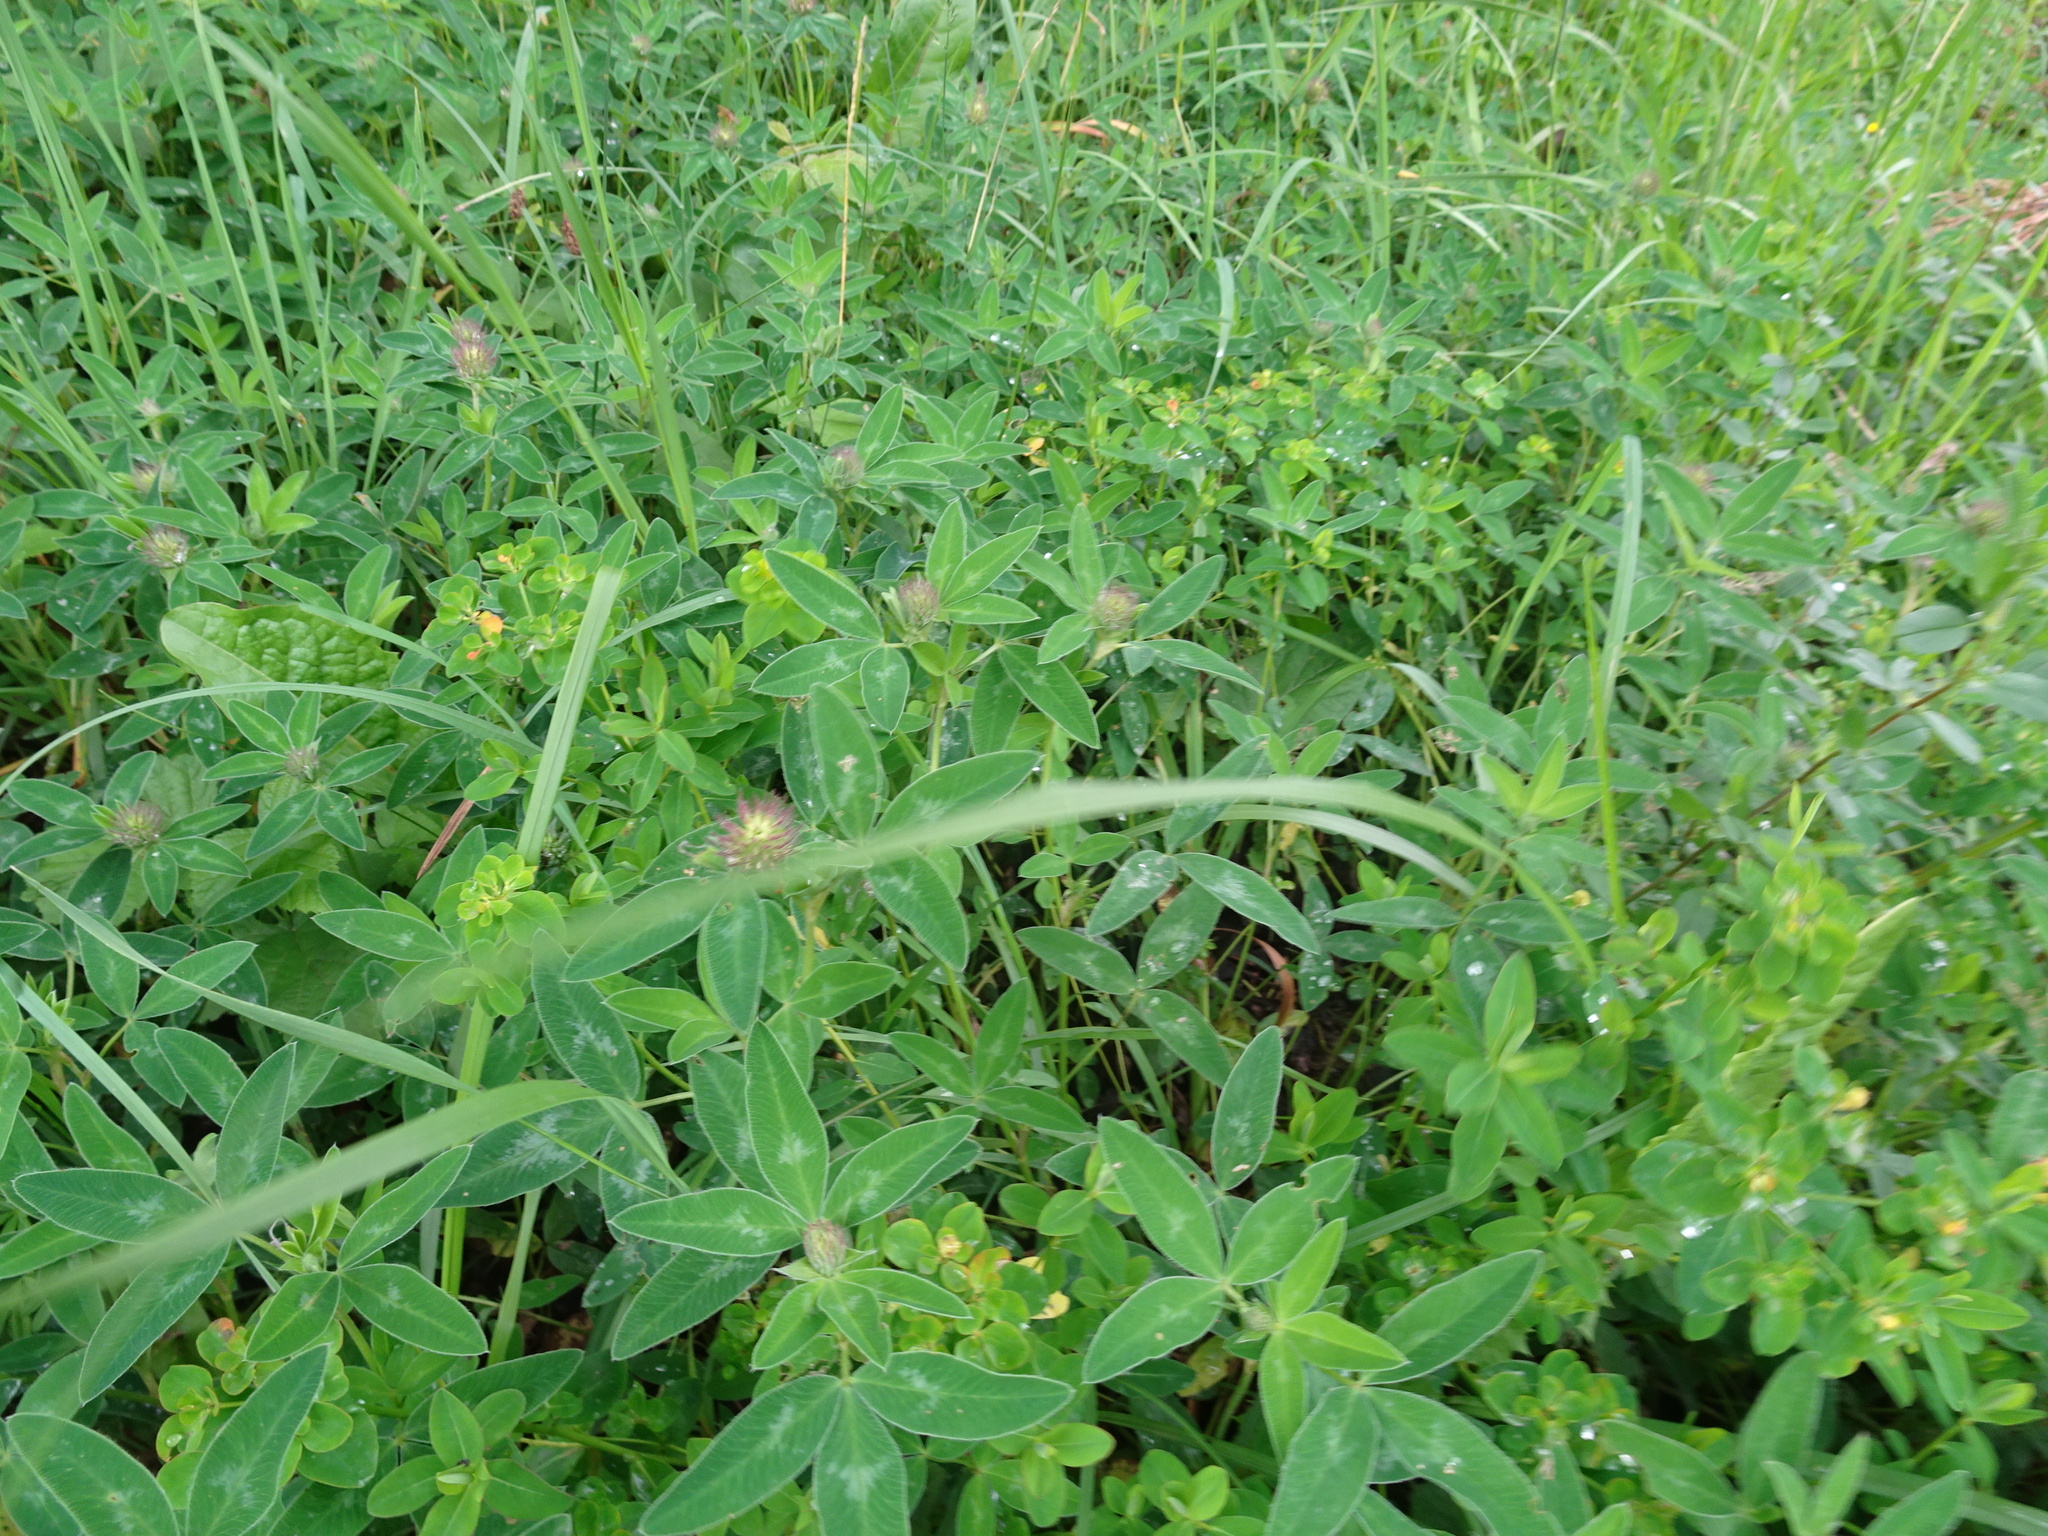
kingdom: Plantae
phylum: Tracheophyta
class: Magnoliopsida
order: Fabales
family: Fabaceae
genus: Trifolium
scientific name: Trifolium medium
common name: Zigzag clover
